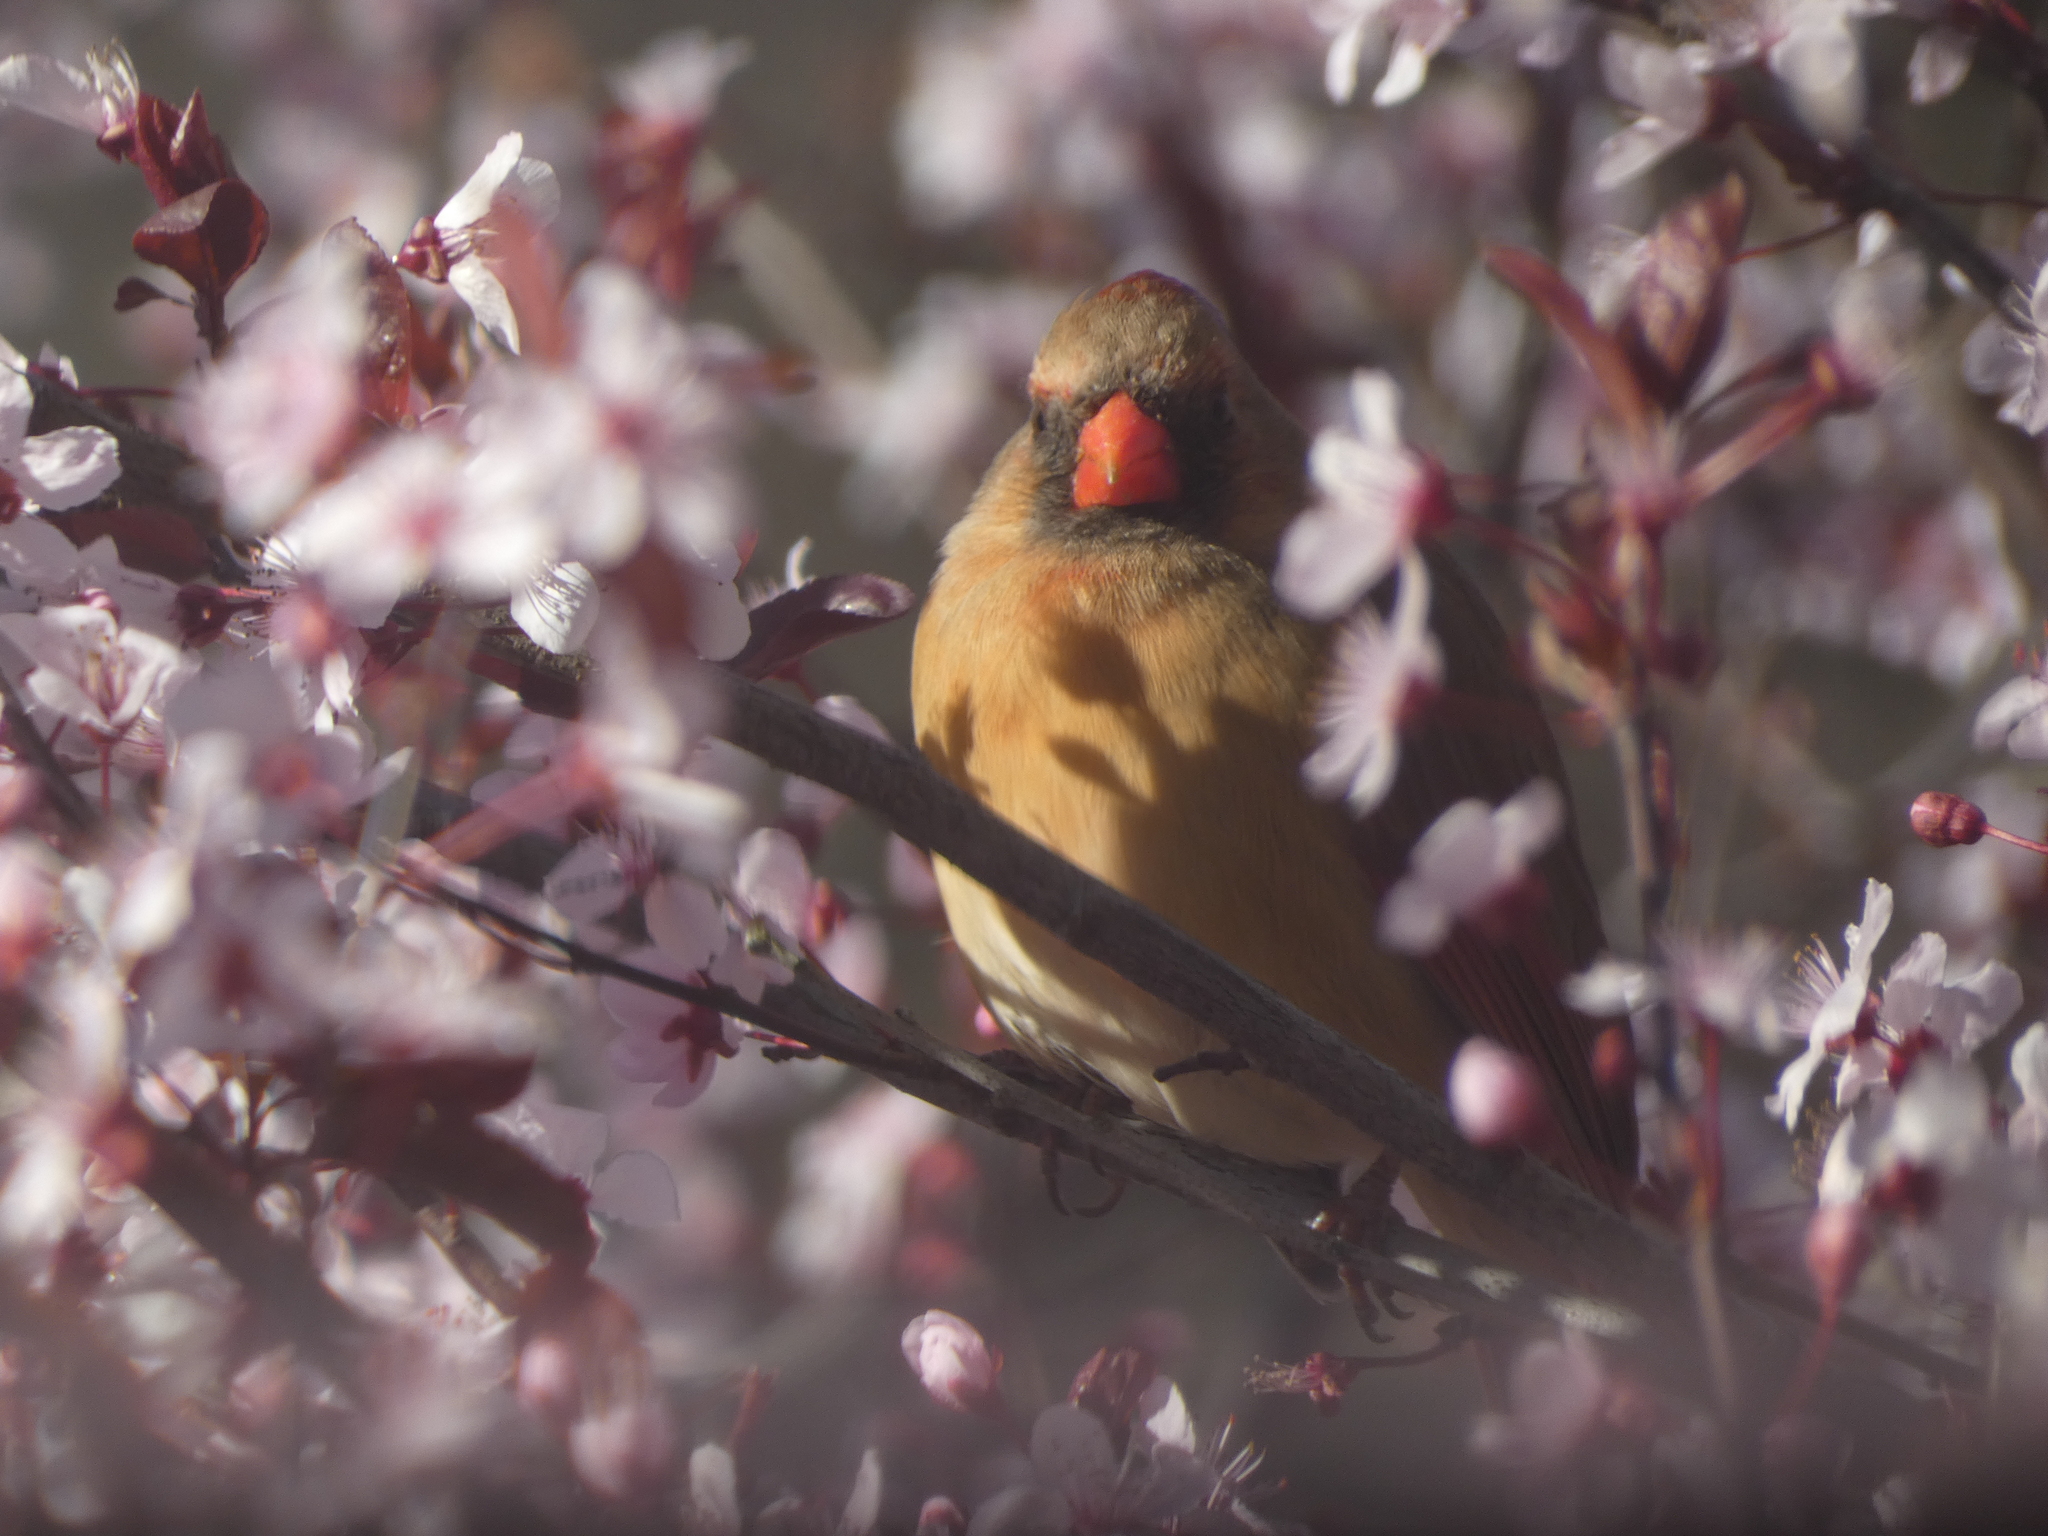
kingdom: Animalia
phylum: Chordata
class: Aves
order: Passeriformes
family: Cardinalidae
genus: Cardinalis
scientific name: Cardinalis cardinalis
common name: Northern cardinal
